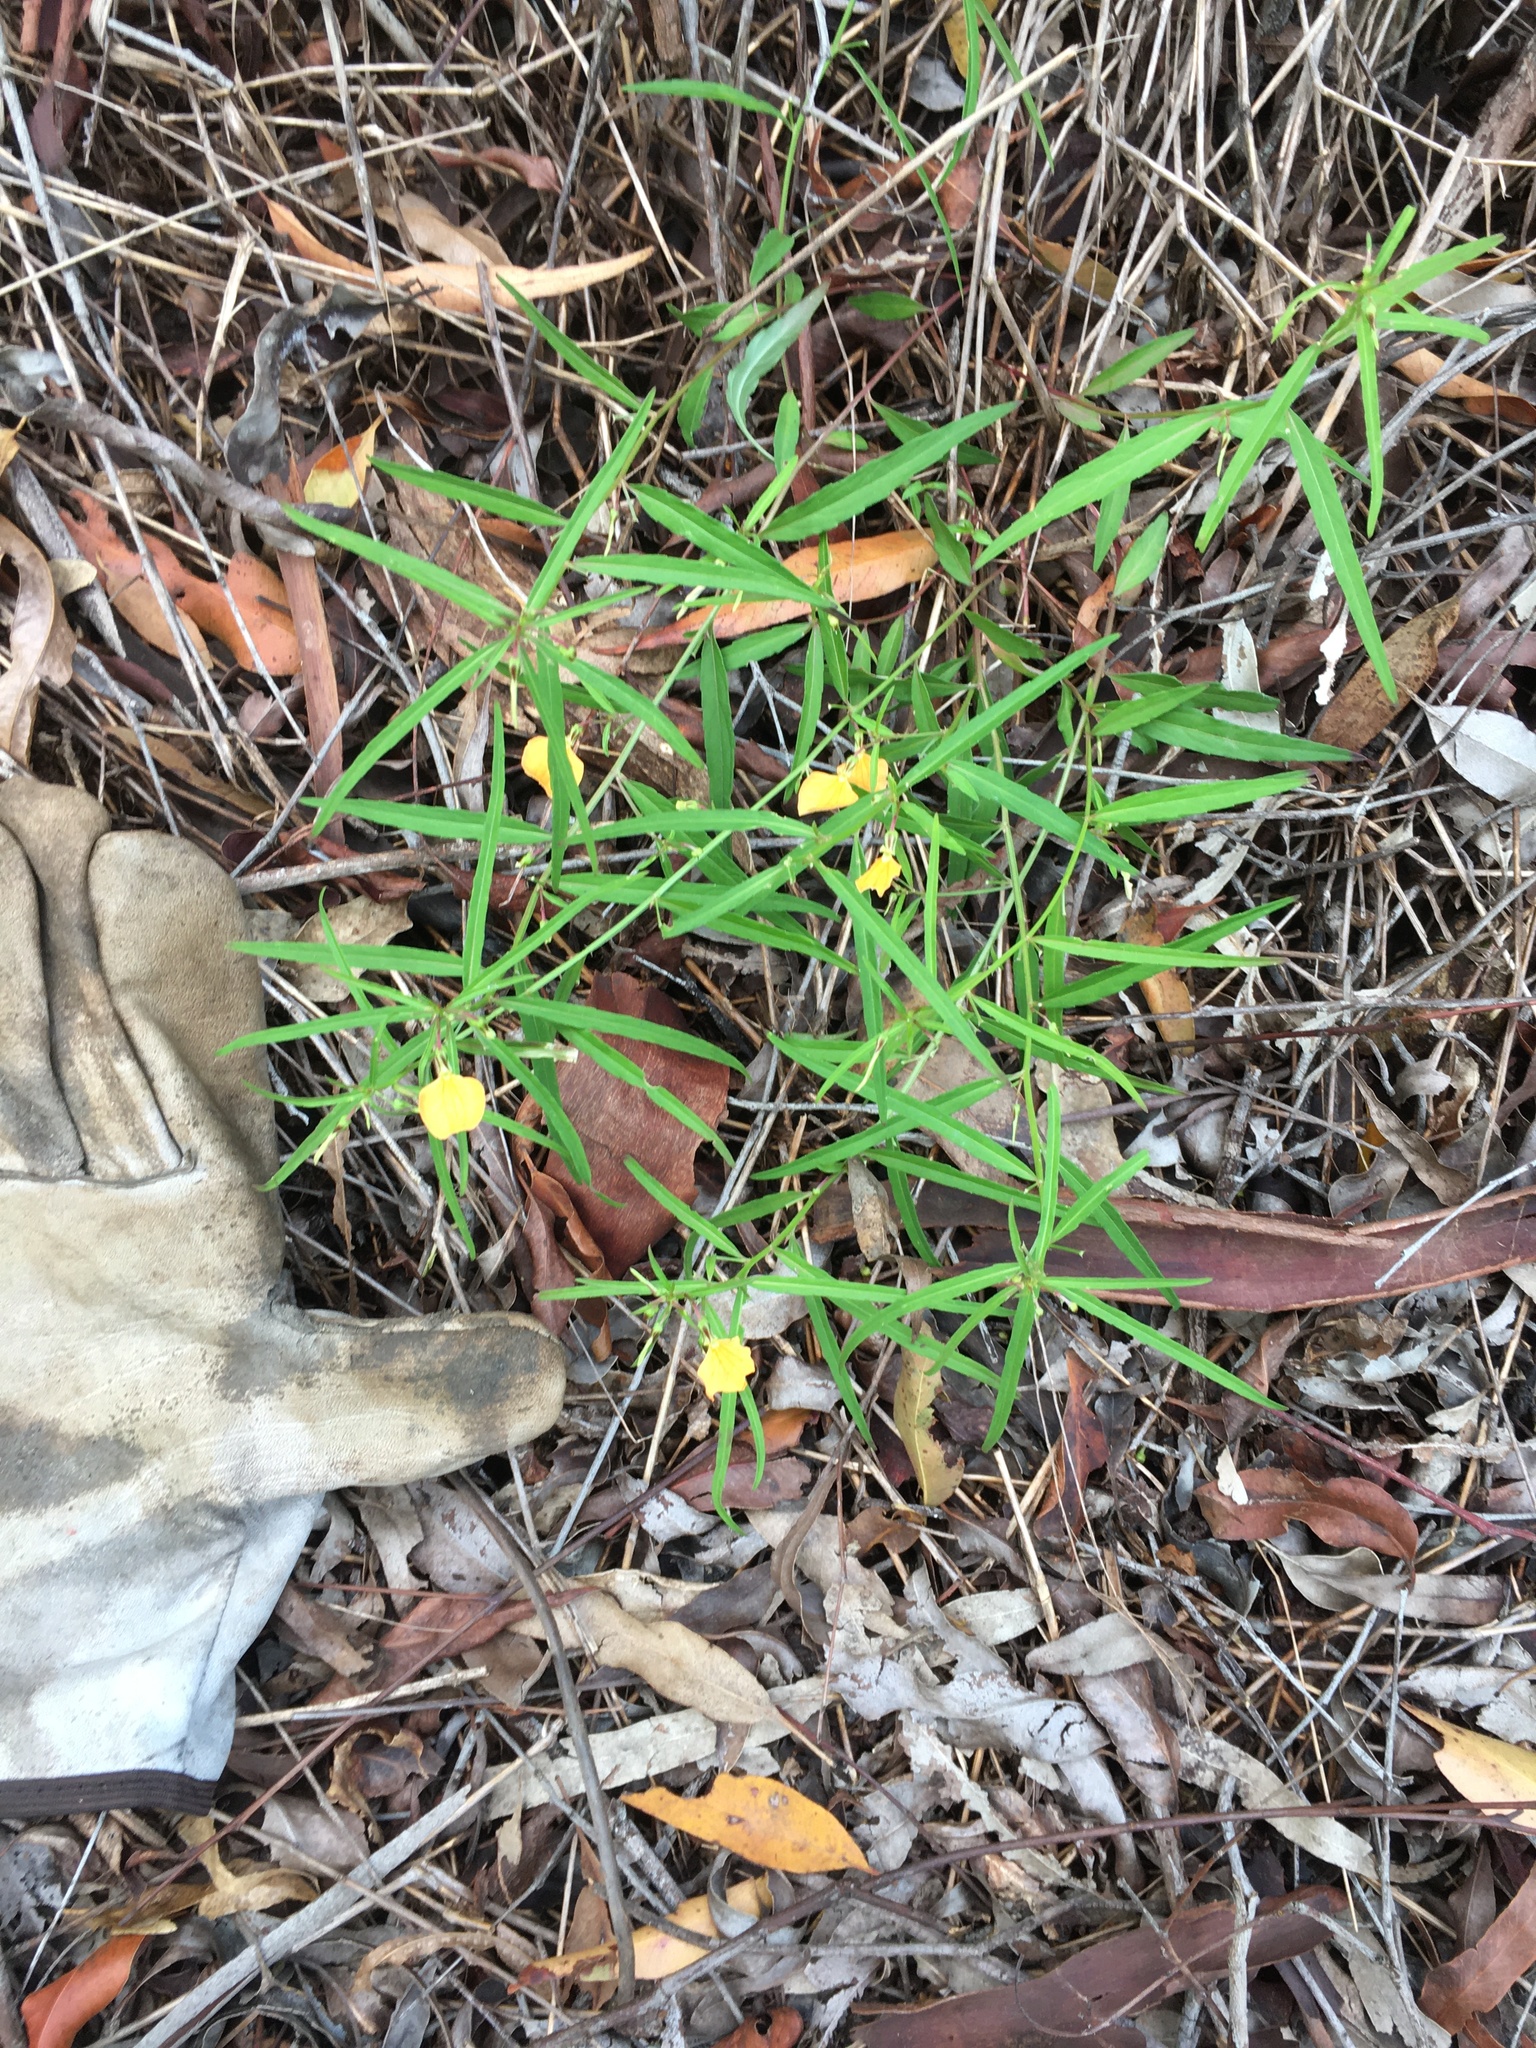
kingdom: Plantae
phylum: Tracheophyta
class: Magnoliopsida
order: Malpighiales
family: Violaceae
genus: Pigea
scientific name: Pigea stellarioides
